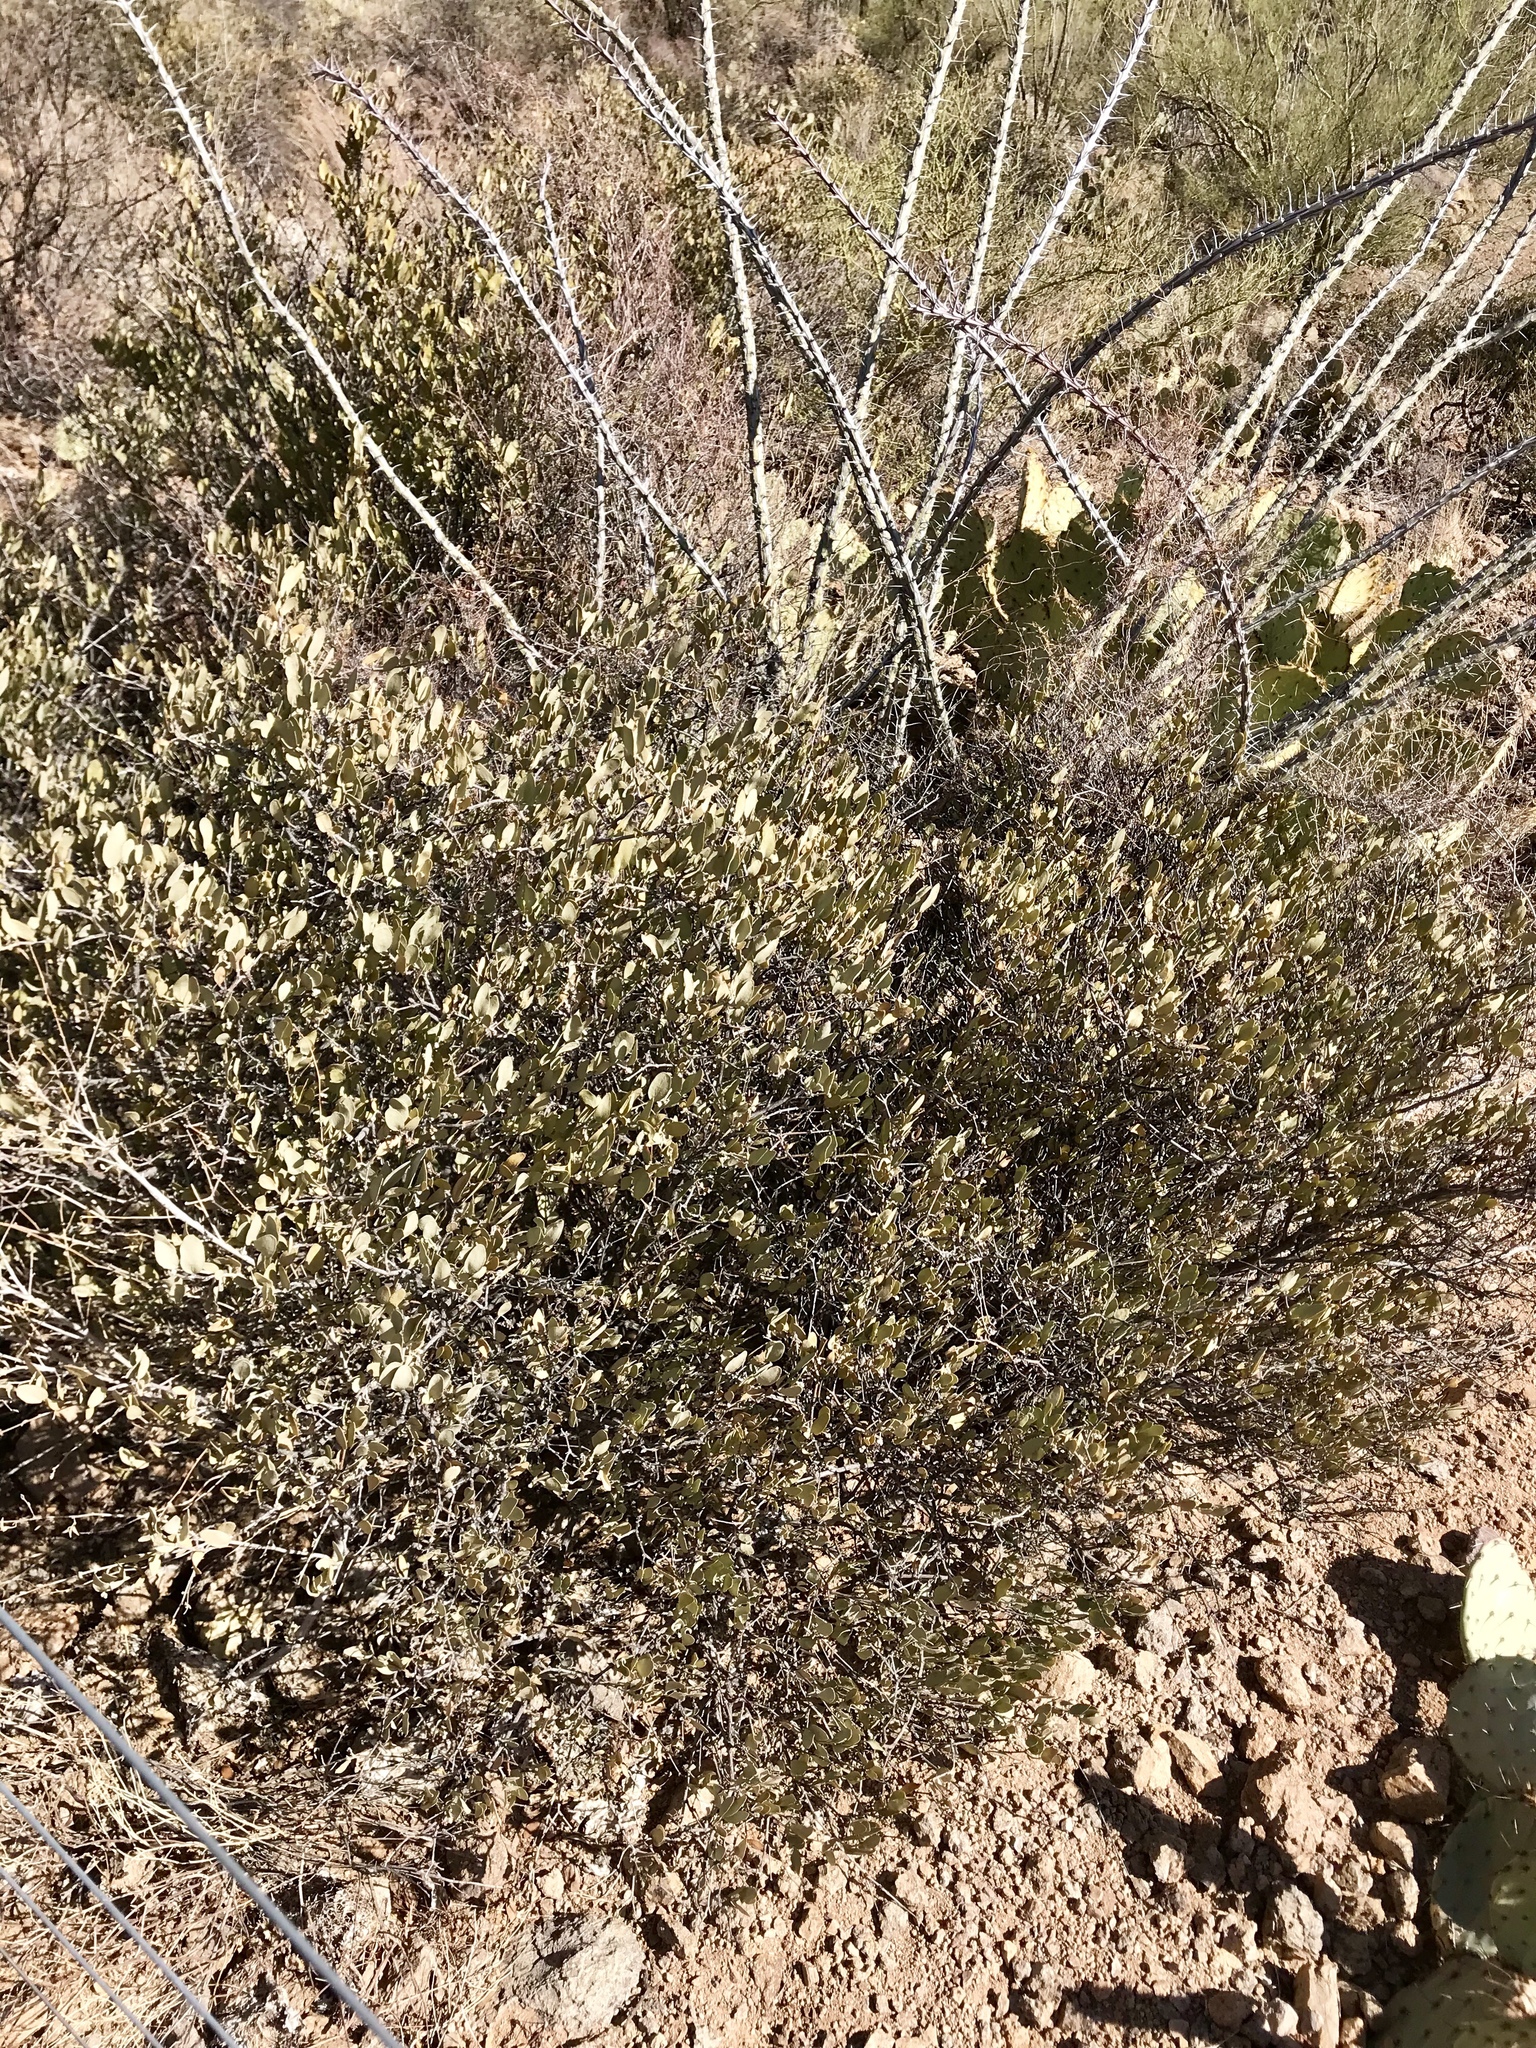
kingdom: Plantae
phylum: Tracheophyta
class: Magnoliopsida
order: Caryophyllales
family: Simmondsiaceae
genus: Simmondsia
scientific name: Simmondsia chinensis
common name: Jojoba
